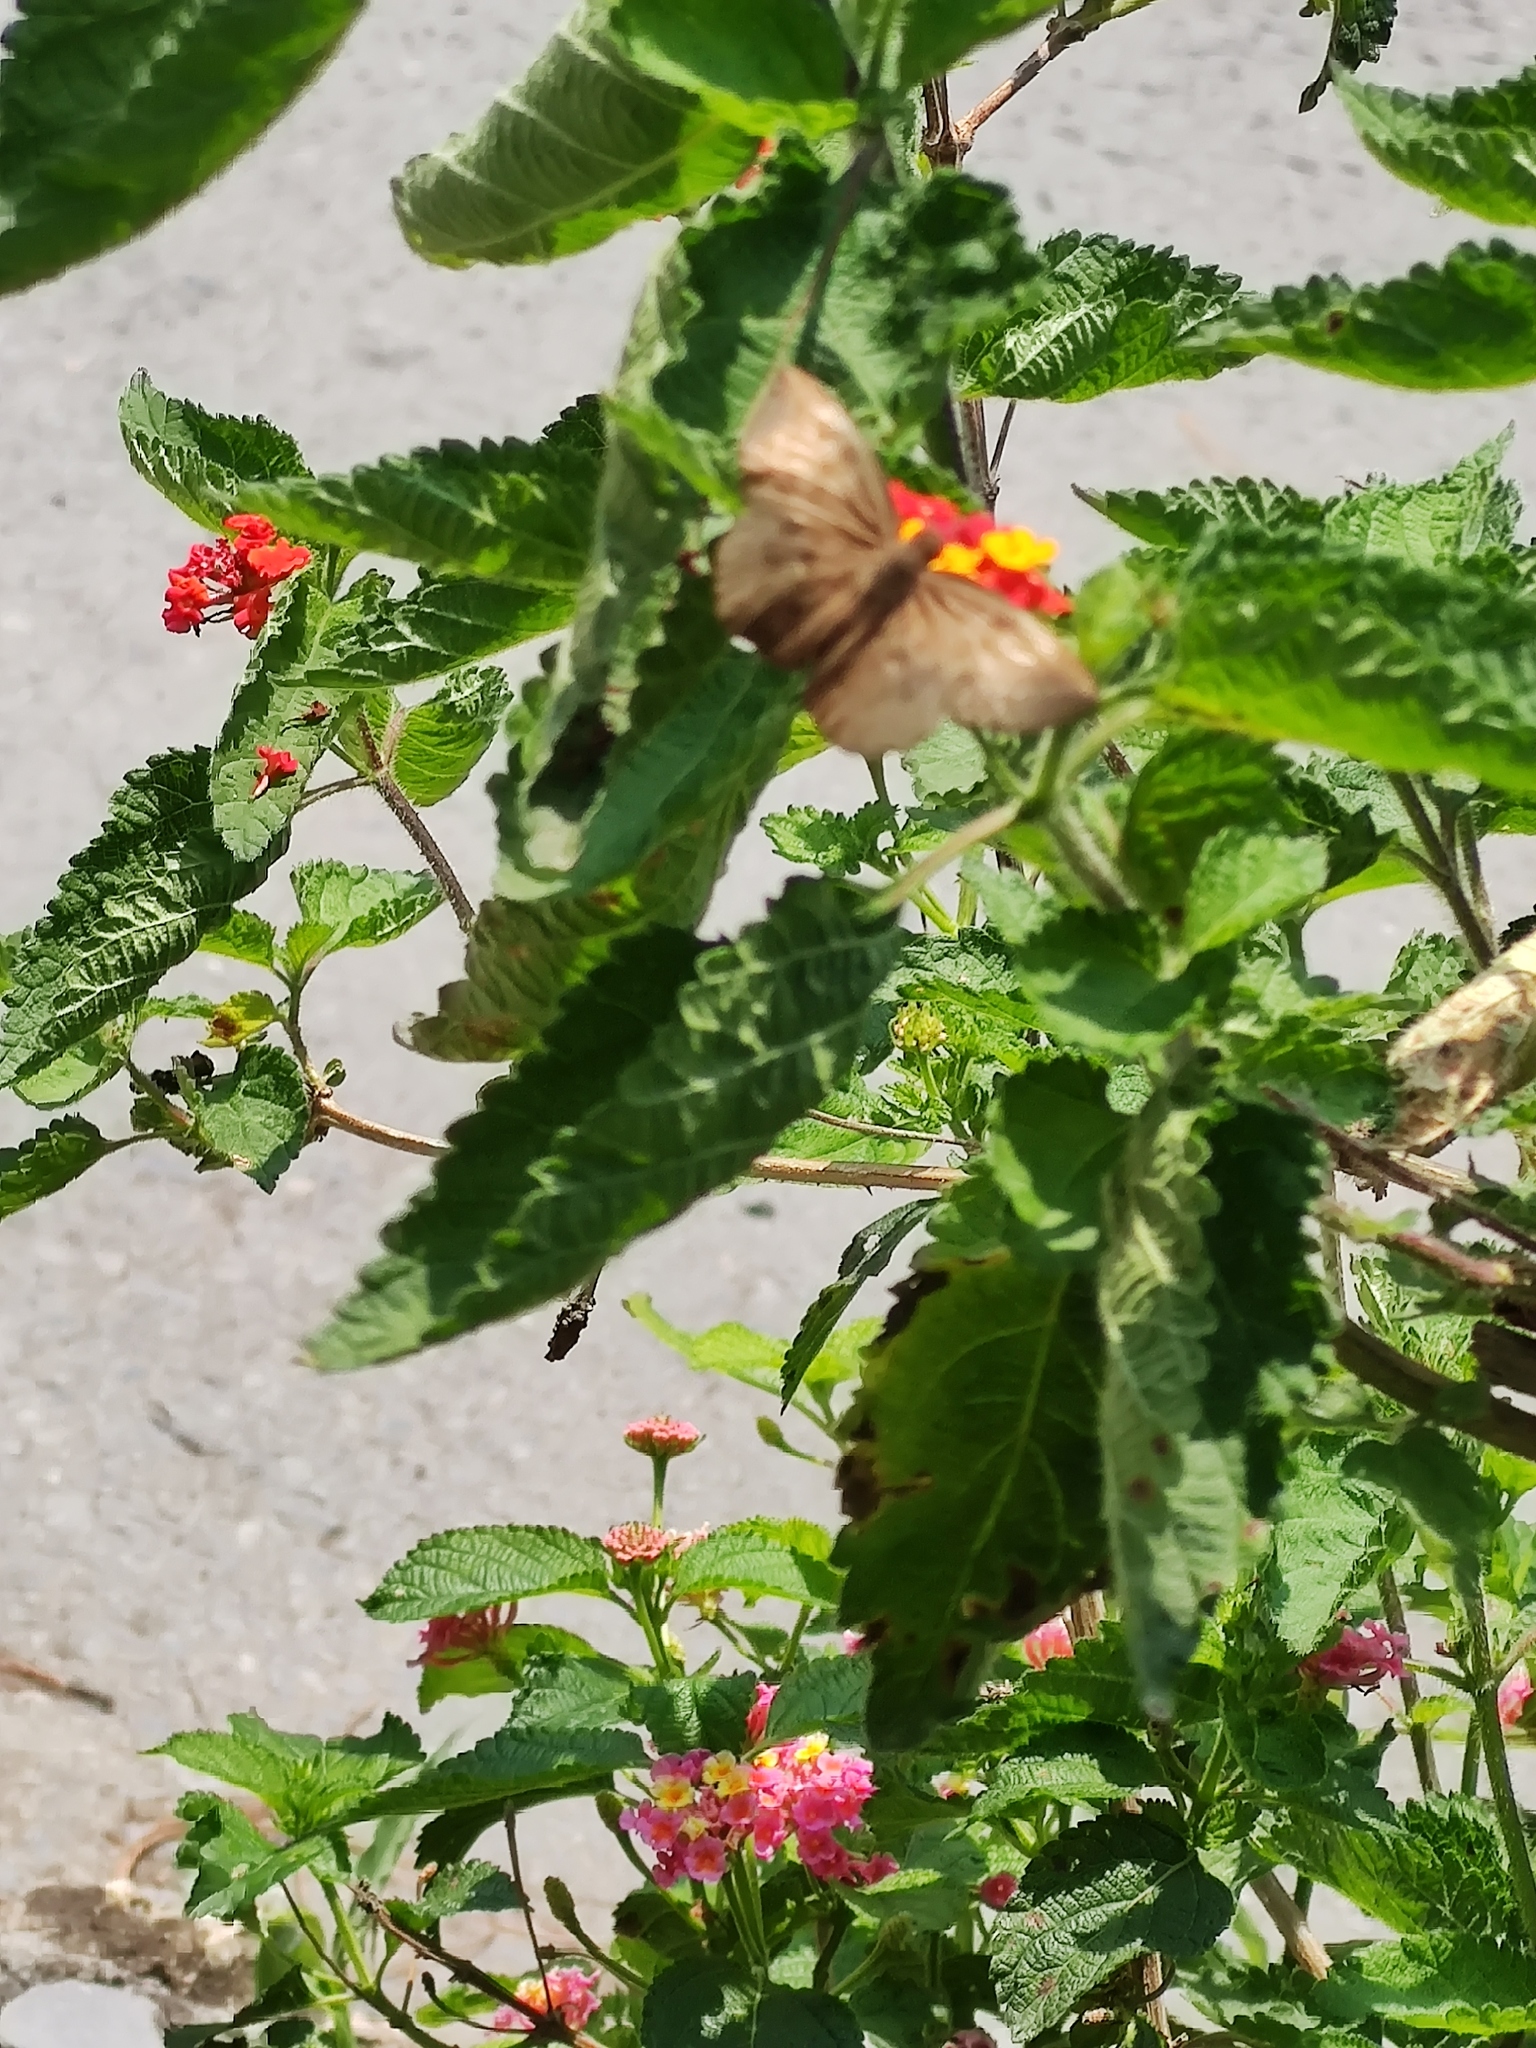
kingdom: Animalia
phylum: Arthropoda
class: Insecta
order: Lepidoptera
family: Hesperiidae
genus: Achlyodes
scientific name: Achlyodes pallida
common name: Pale sicklewing
